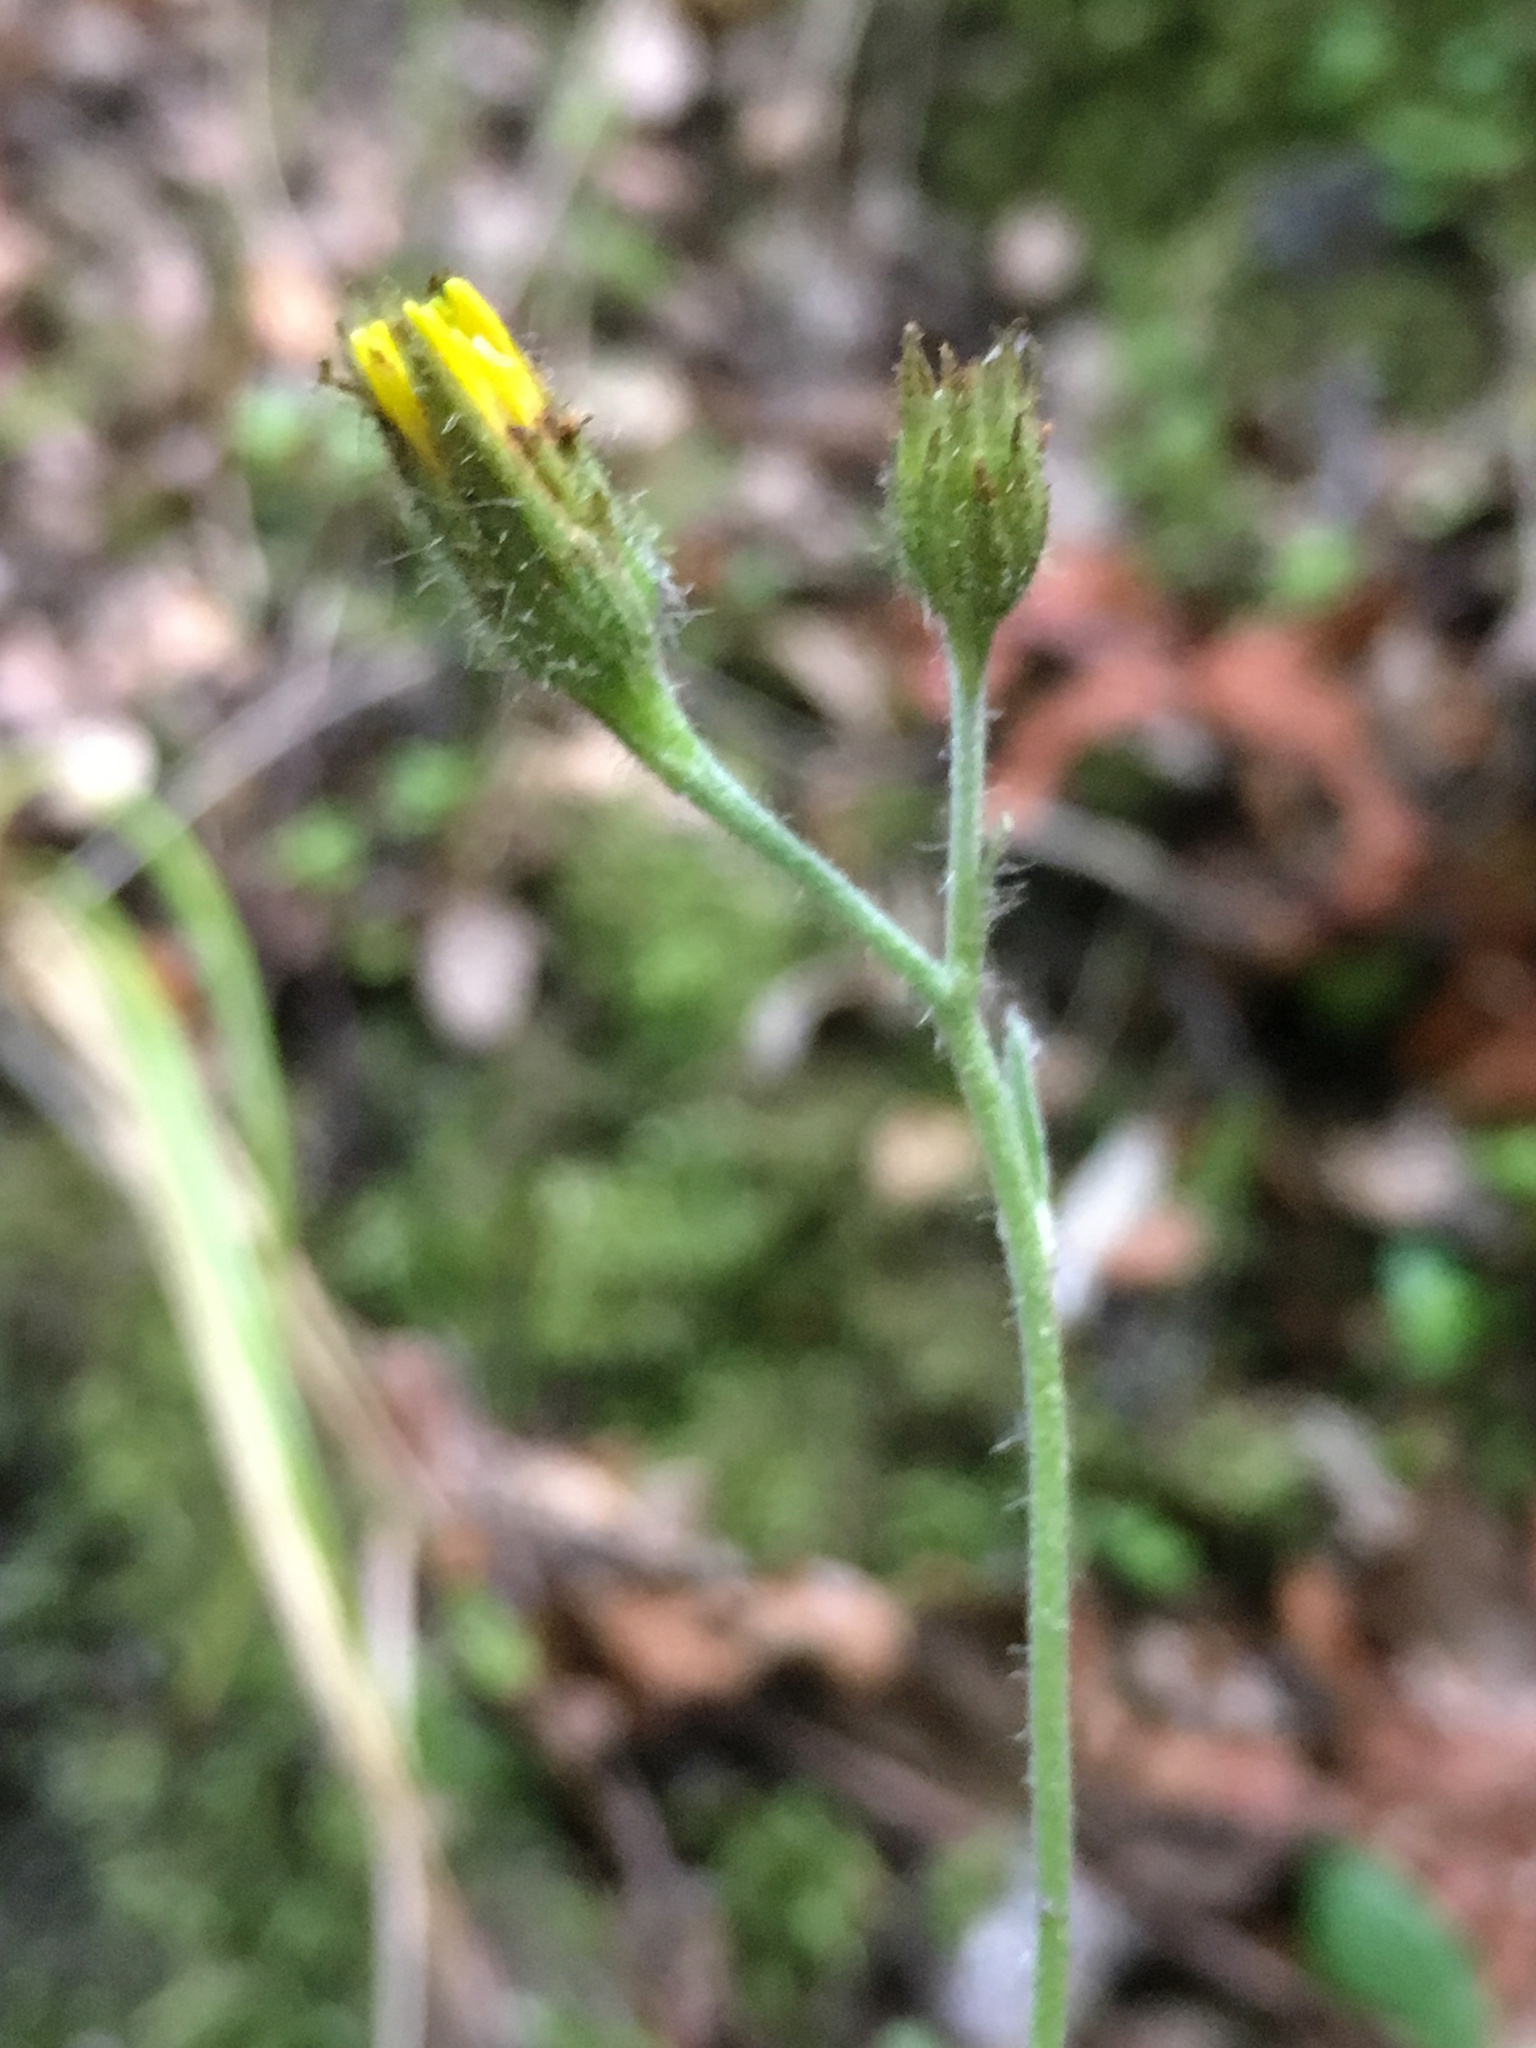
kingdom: Plantae
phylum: Tracheophyta
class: Magnoliopsida
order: Asterales
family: Asteraceae
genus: Hieracium
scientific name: Hieracium lepidulum
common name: Irregular-toothed hawkweed
